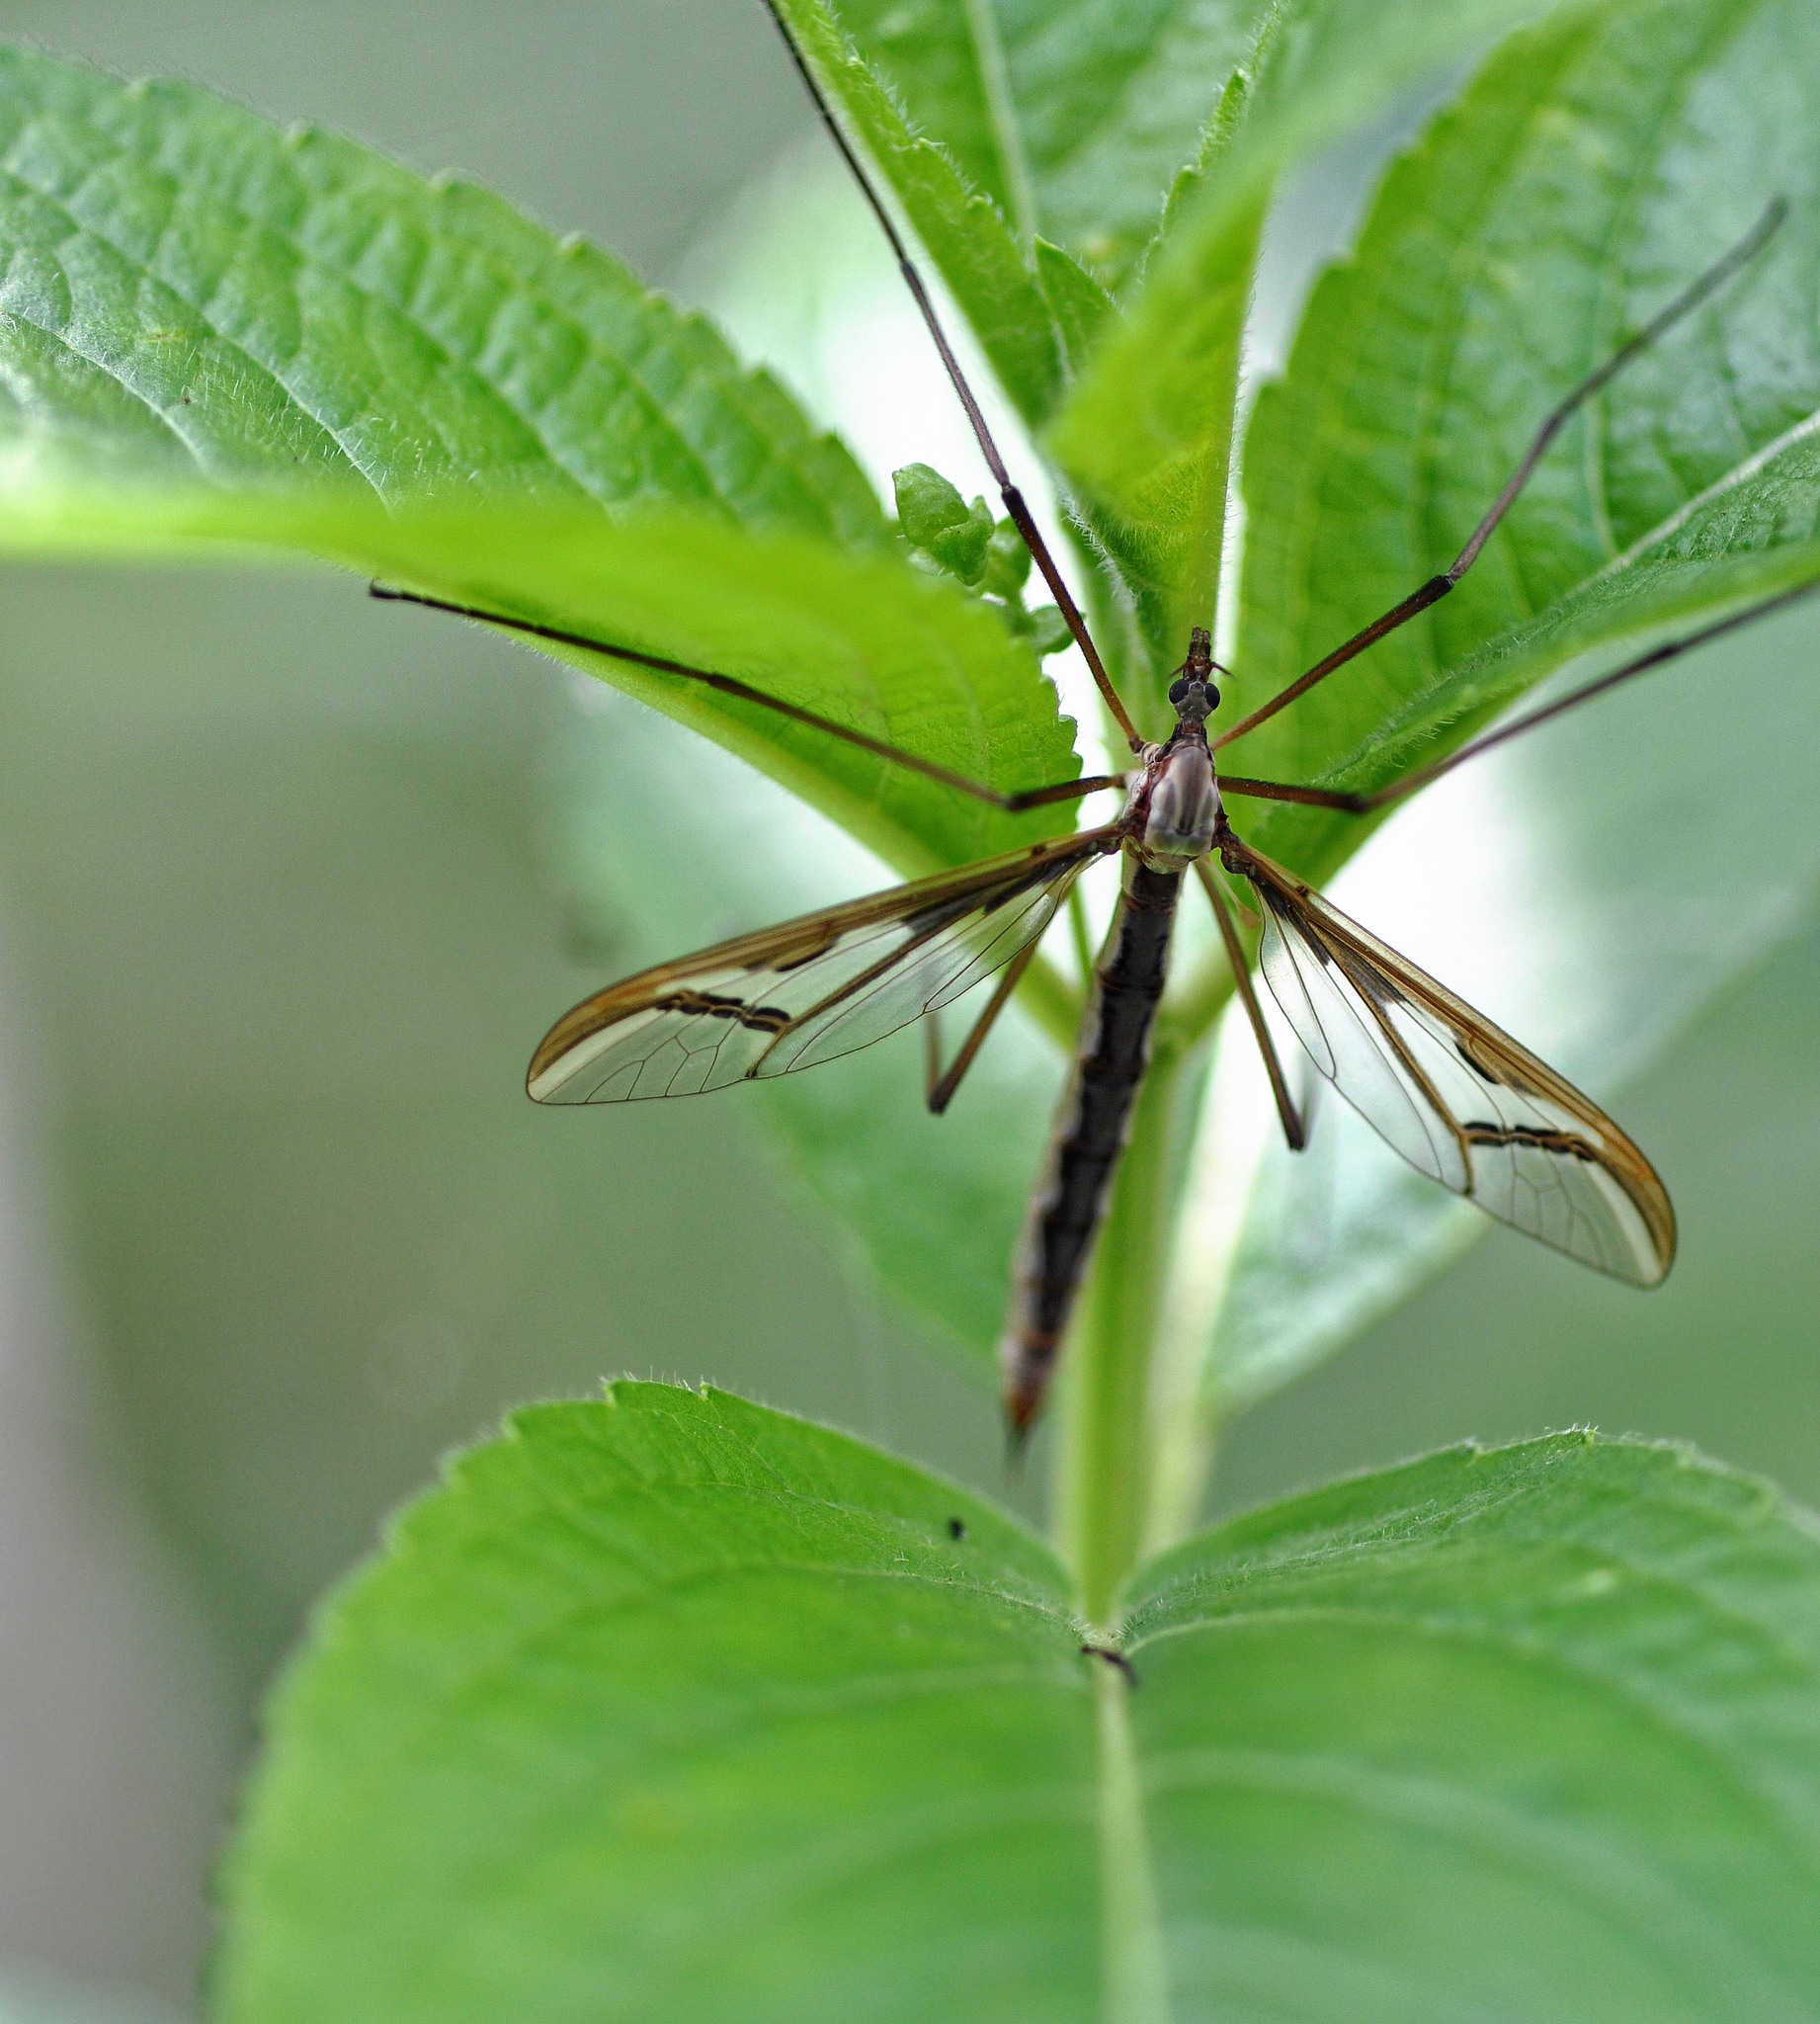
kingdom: Animalia
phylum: Arthropoda
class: Insecta
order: Diptera
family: Pediciidae
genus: Pedicia
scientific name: Pedicia rivosa
